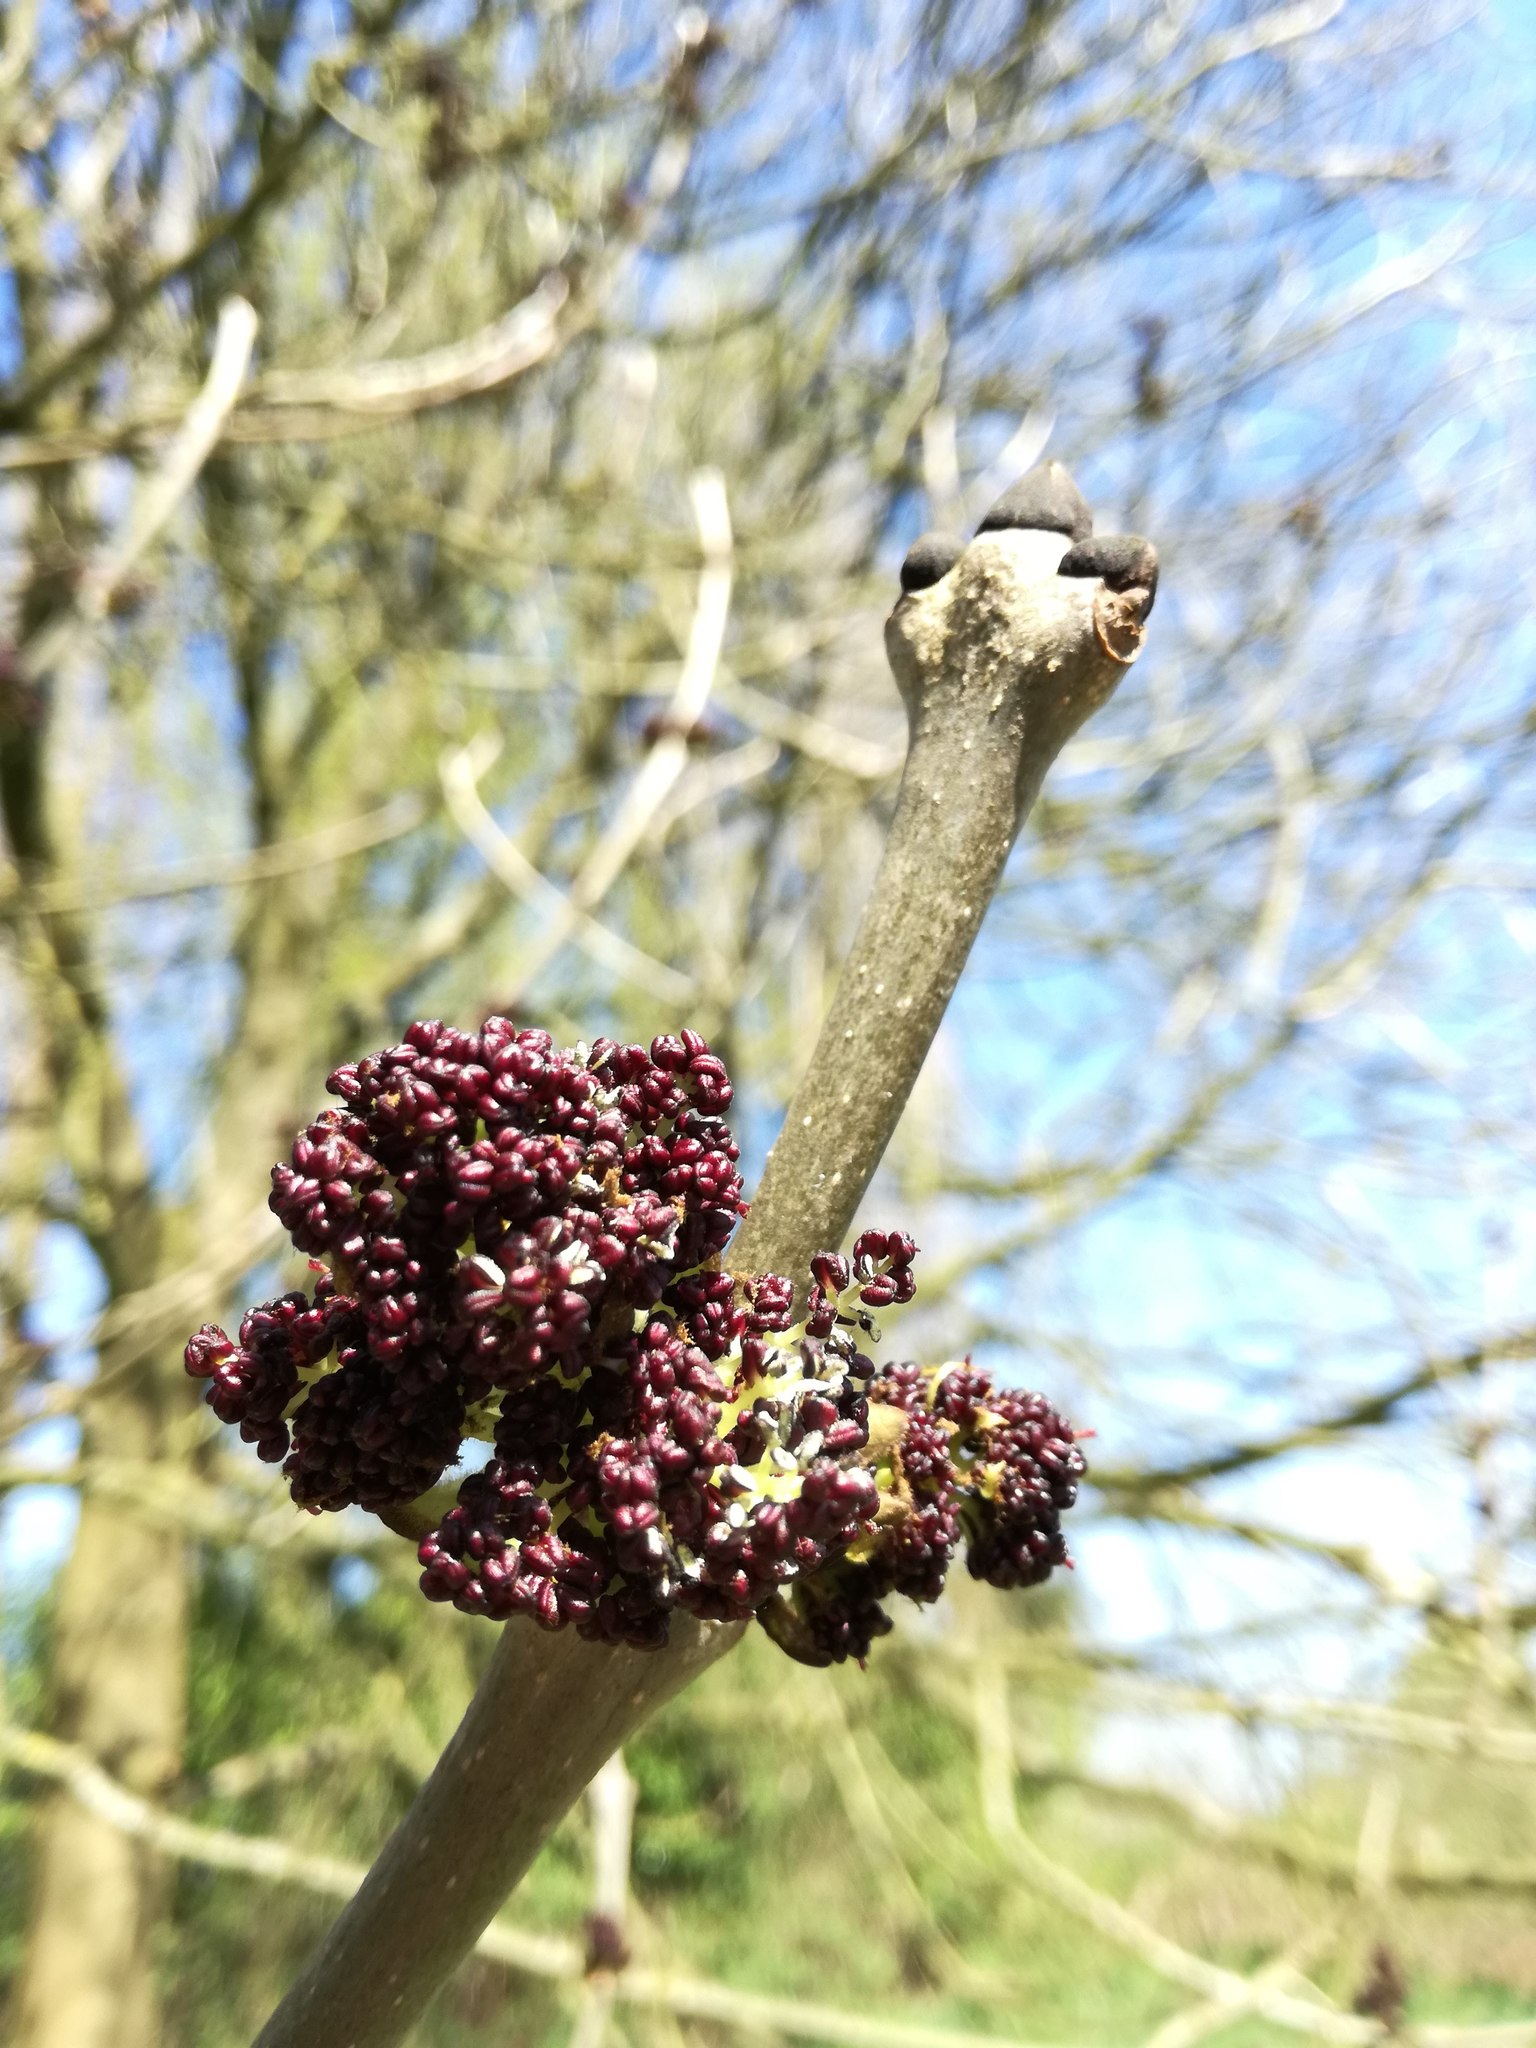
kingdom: Plantae
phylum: Tracheophyta
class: Magnoliopsida
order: Lamiales
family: Oleaceae
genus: Fraxinus
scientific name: Fraxinus excelsior
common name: European ash
